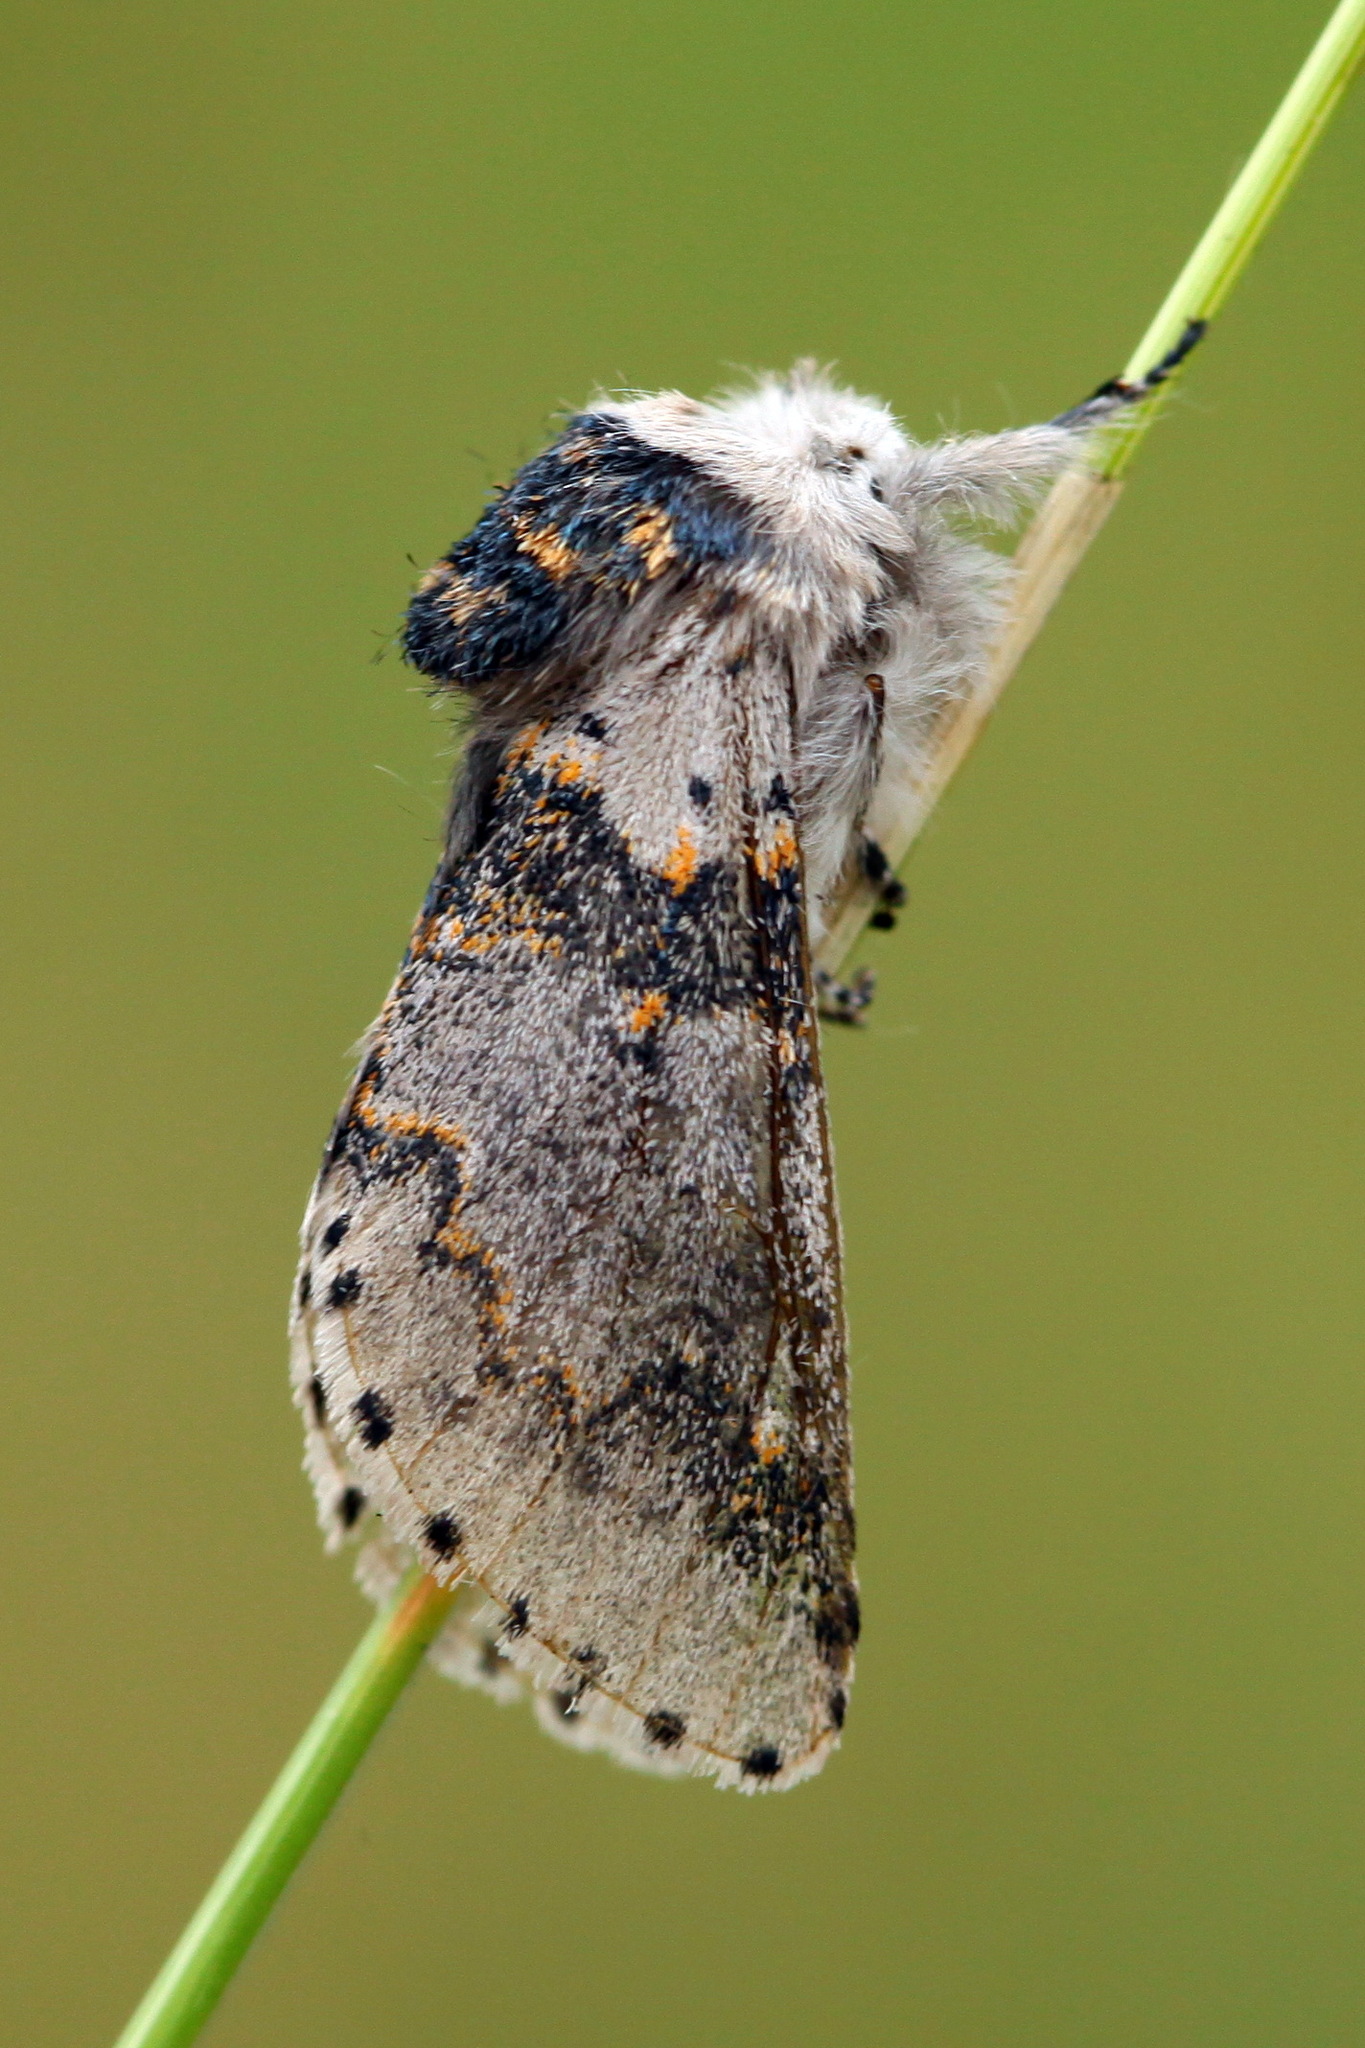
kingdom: Animalia
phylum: Arthropoda
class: Insecta
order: Lepidoptera
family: Notodontidae
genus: Furcula
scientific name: Furcula furcula
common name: Sallow kitten
